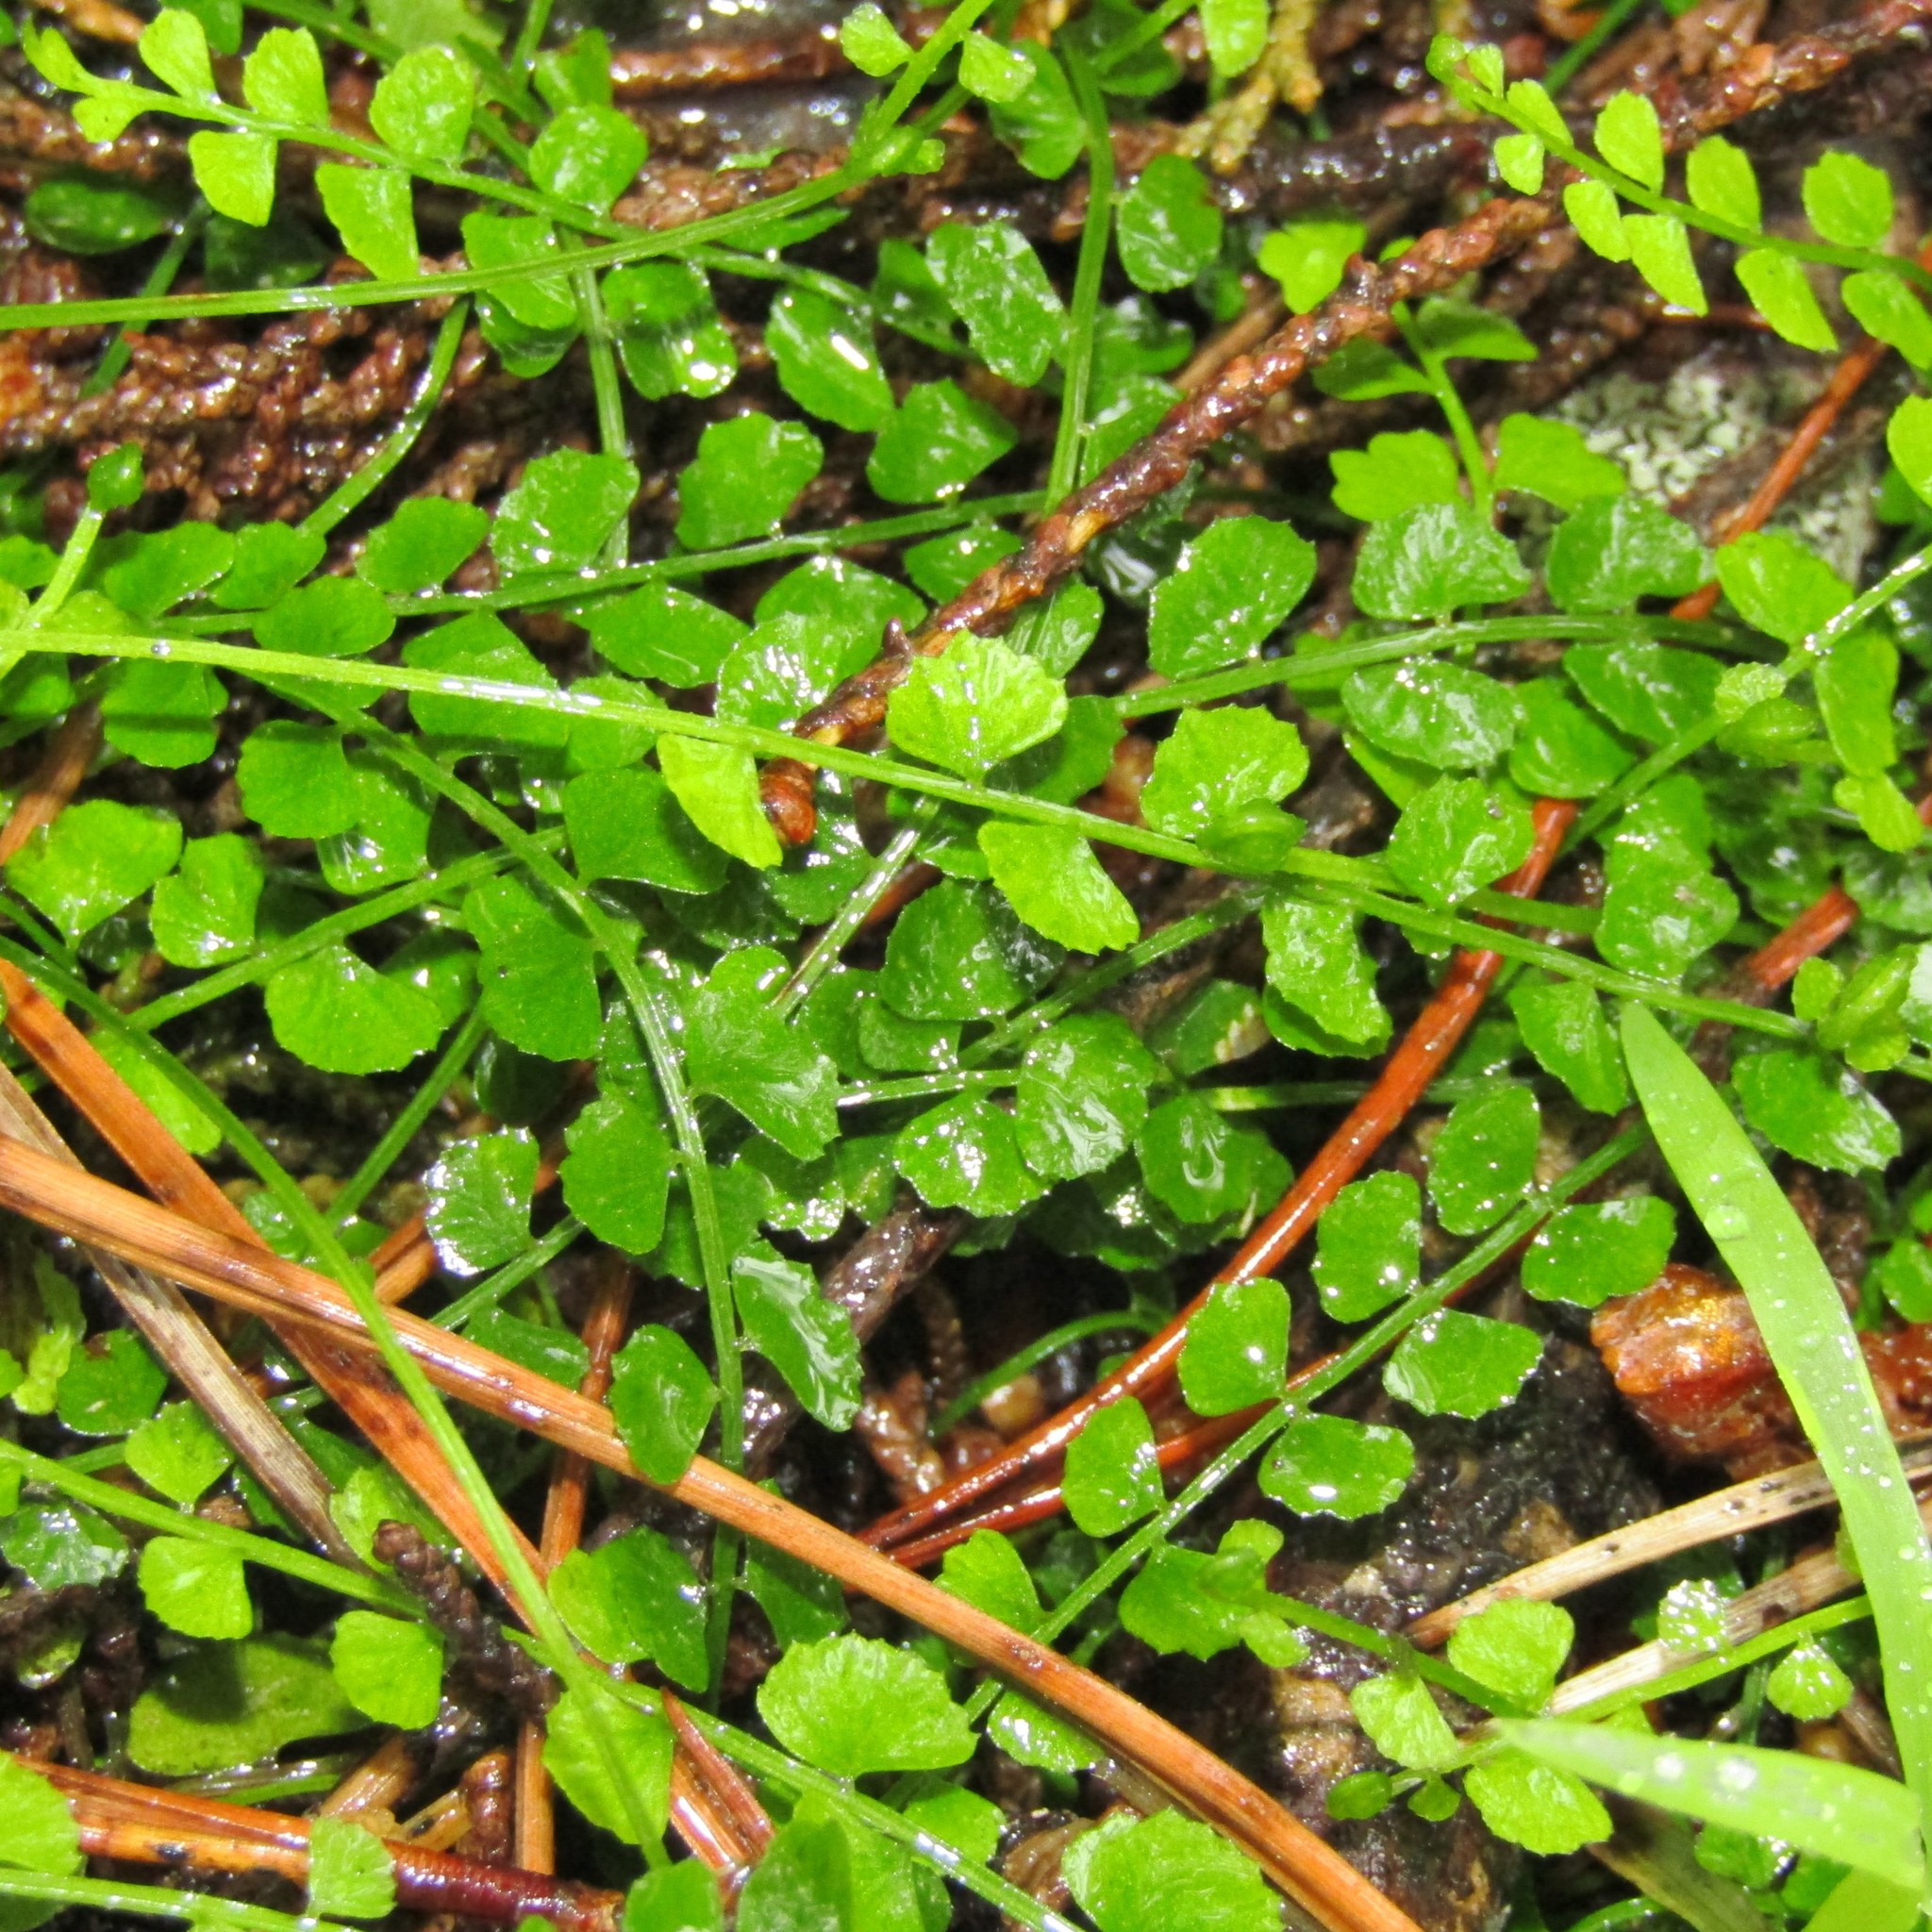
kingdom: Plantae
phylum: Tracheophyta
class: Polypodiopsida
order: Polypodiales
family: Aspleniaceae
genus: Asplenium
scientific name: Asplenium flabellifolium
